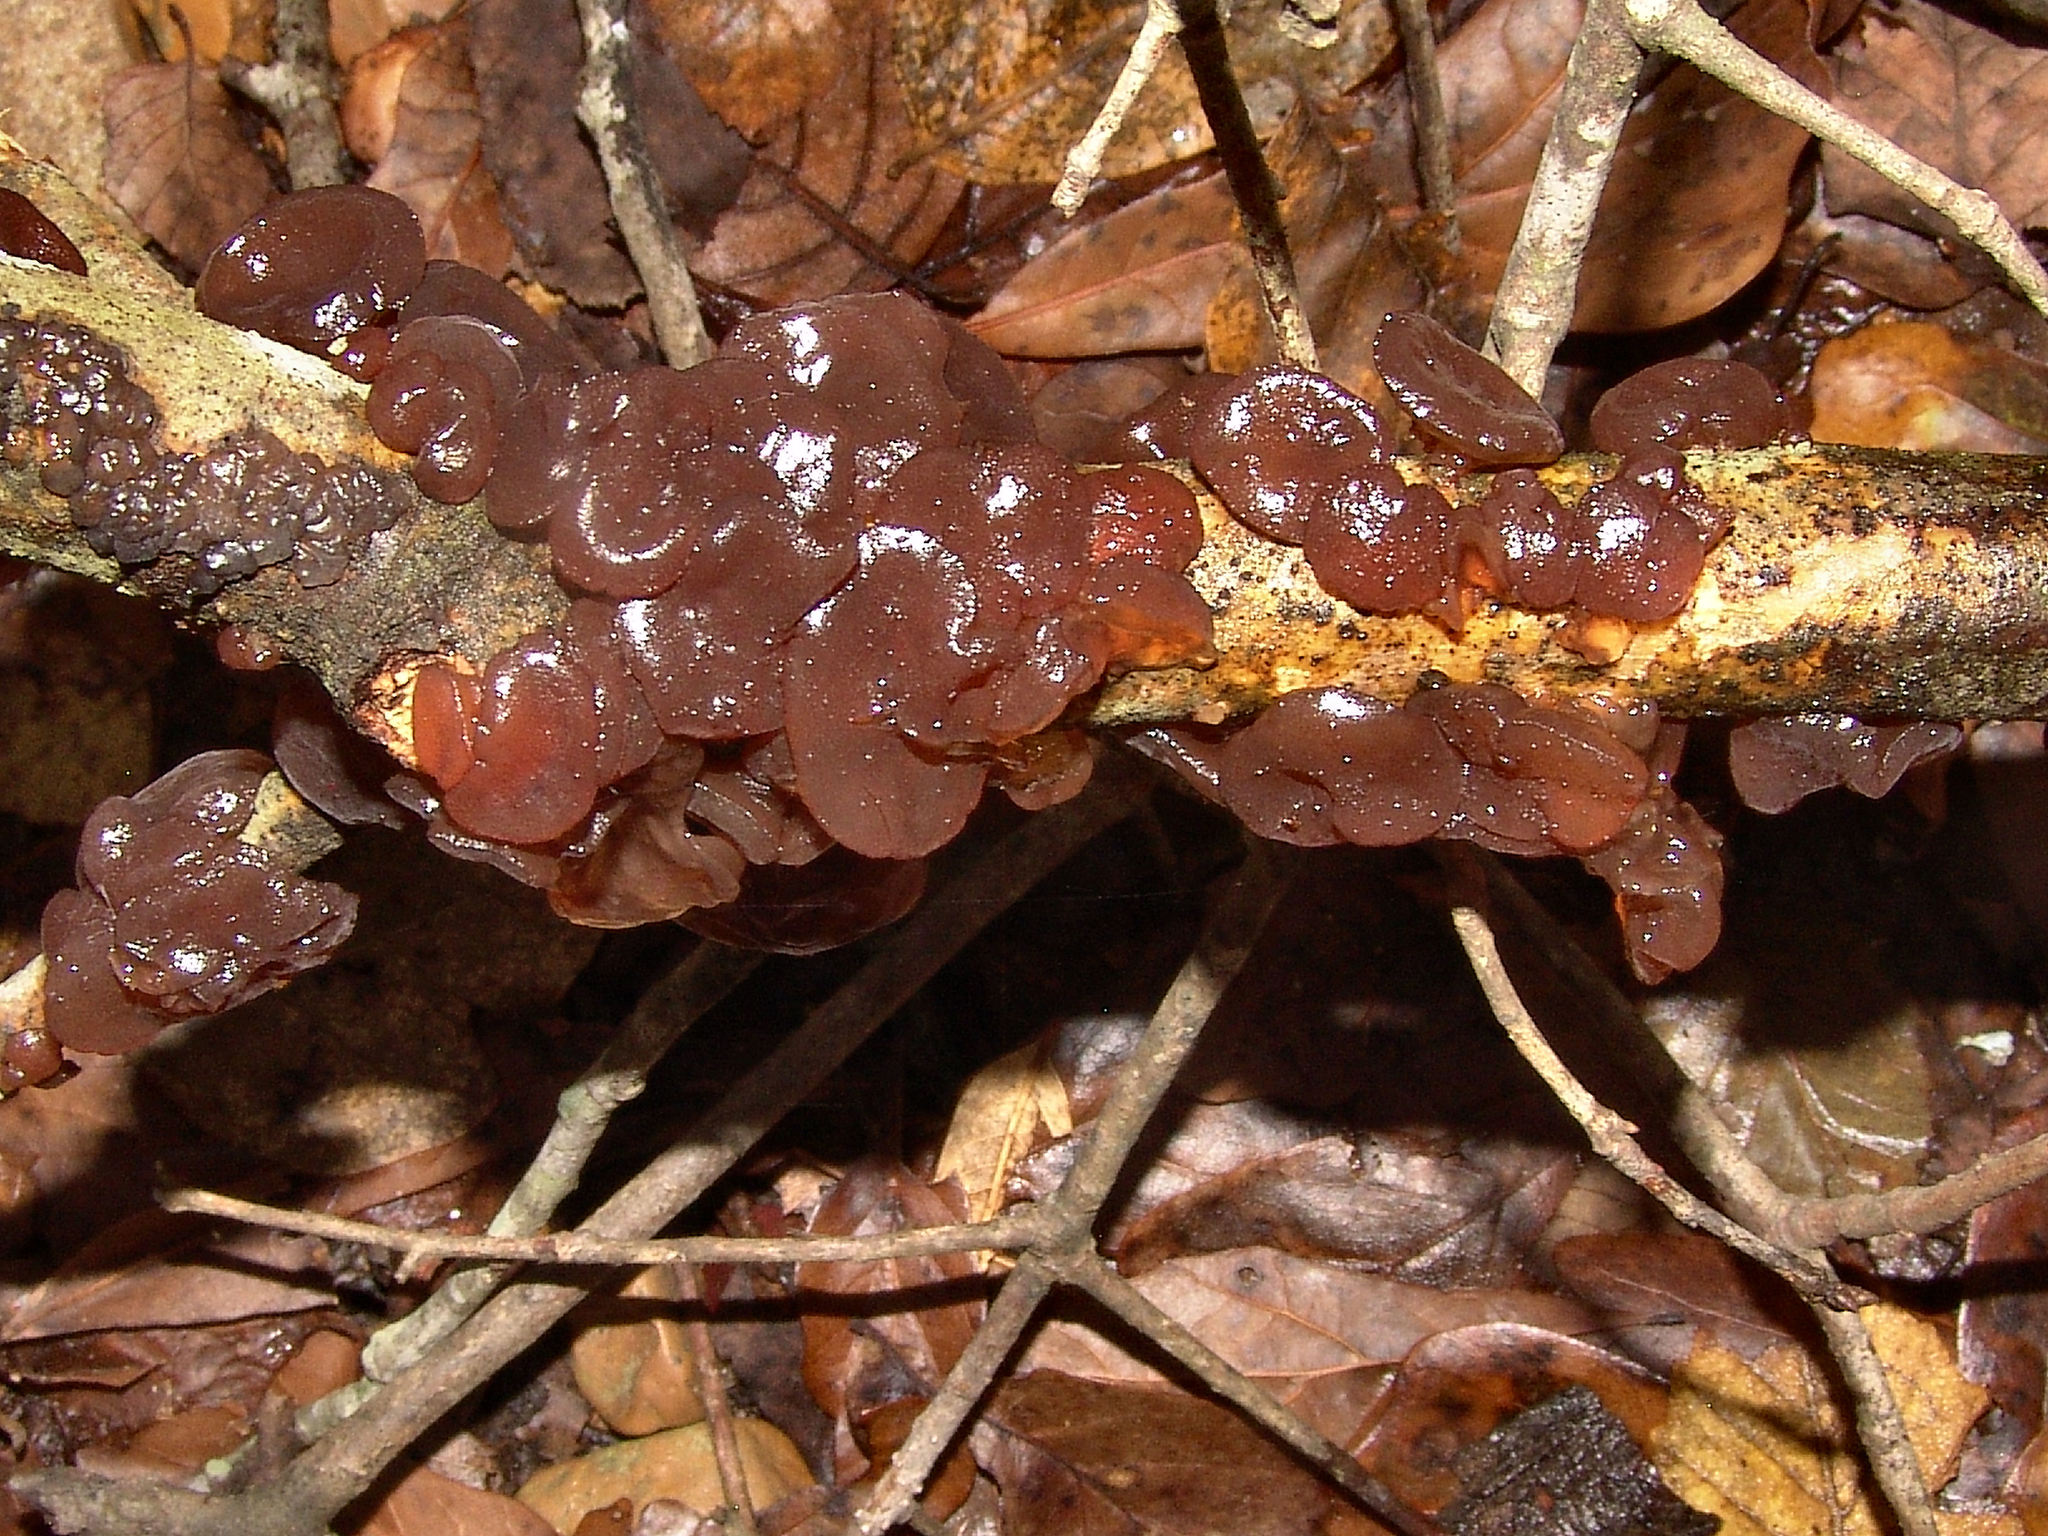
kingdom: Fungi
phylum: Basidiomycota
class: Agaricomycetes
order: Auriculariales
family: Auriculariaceae
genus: Exidia
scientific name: Exidia
